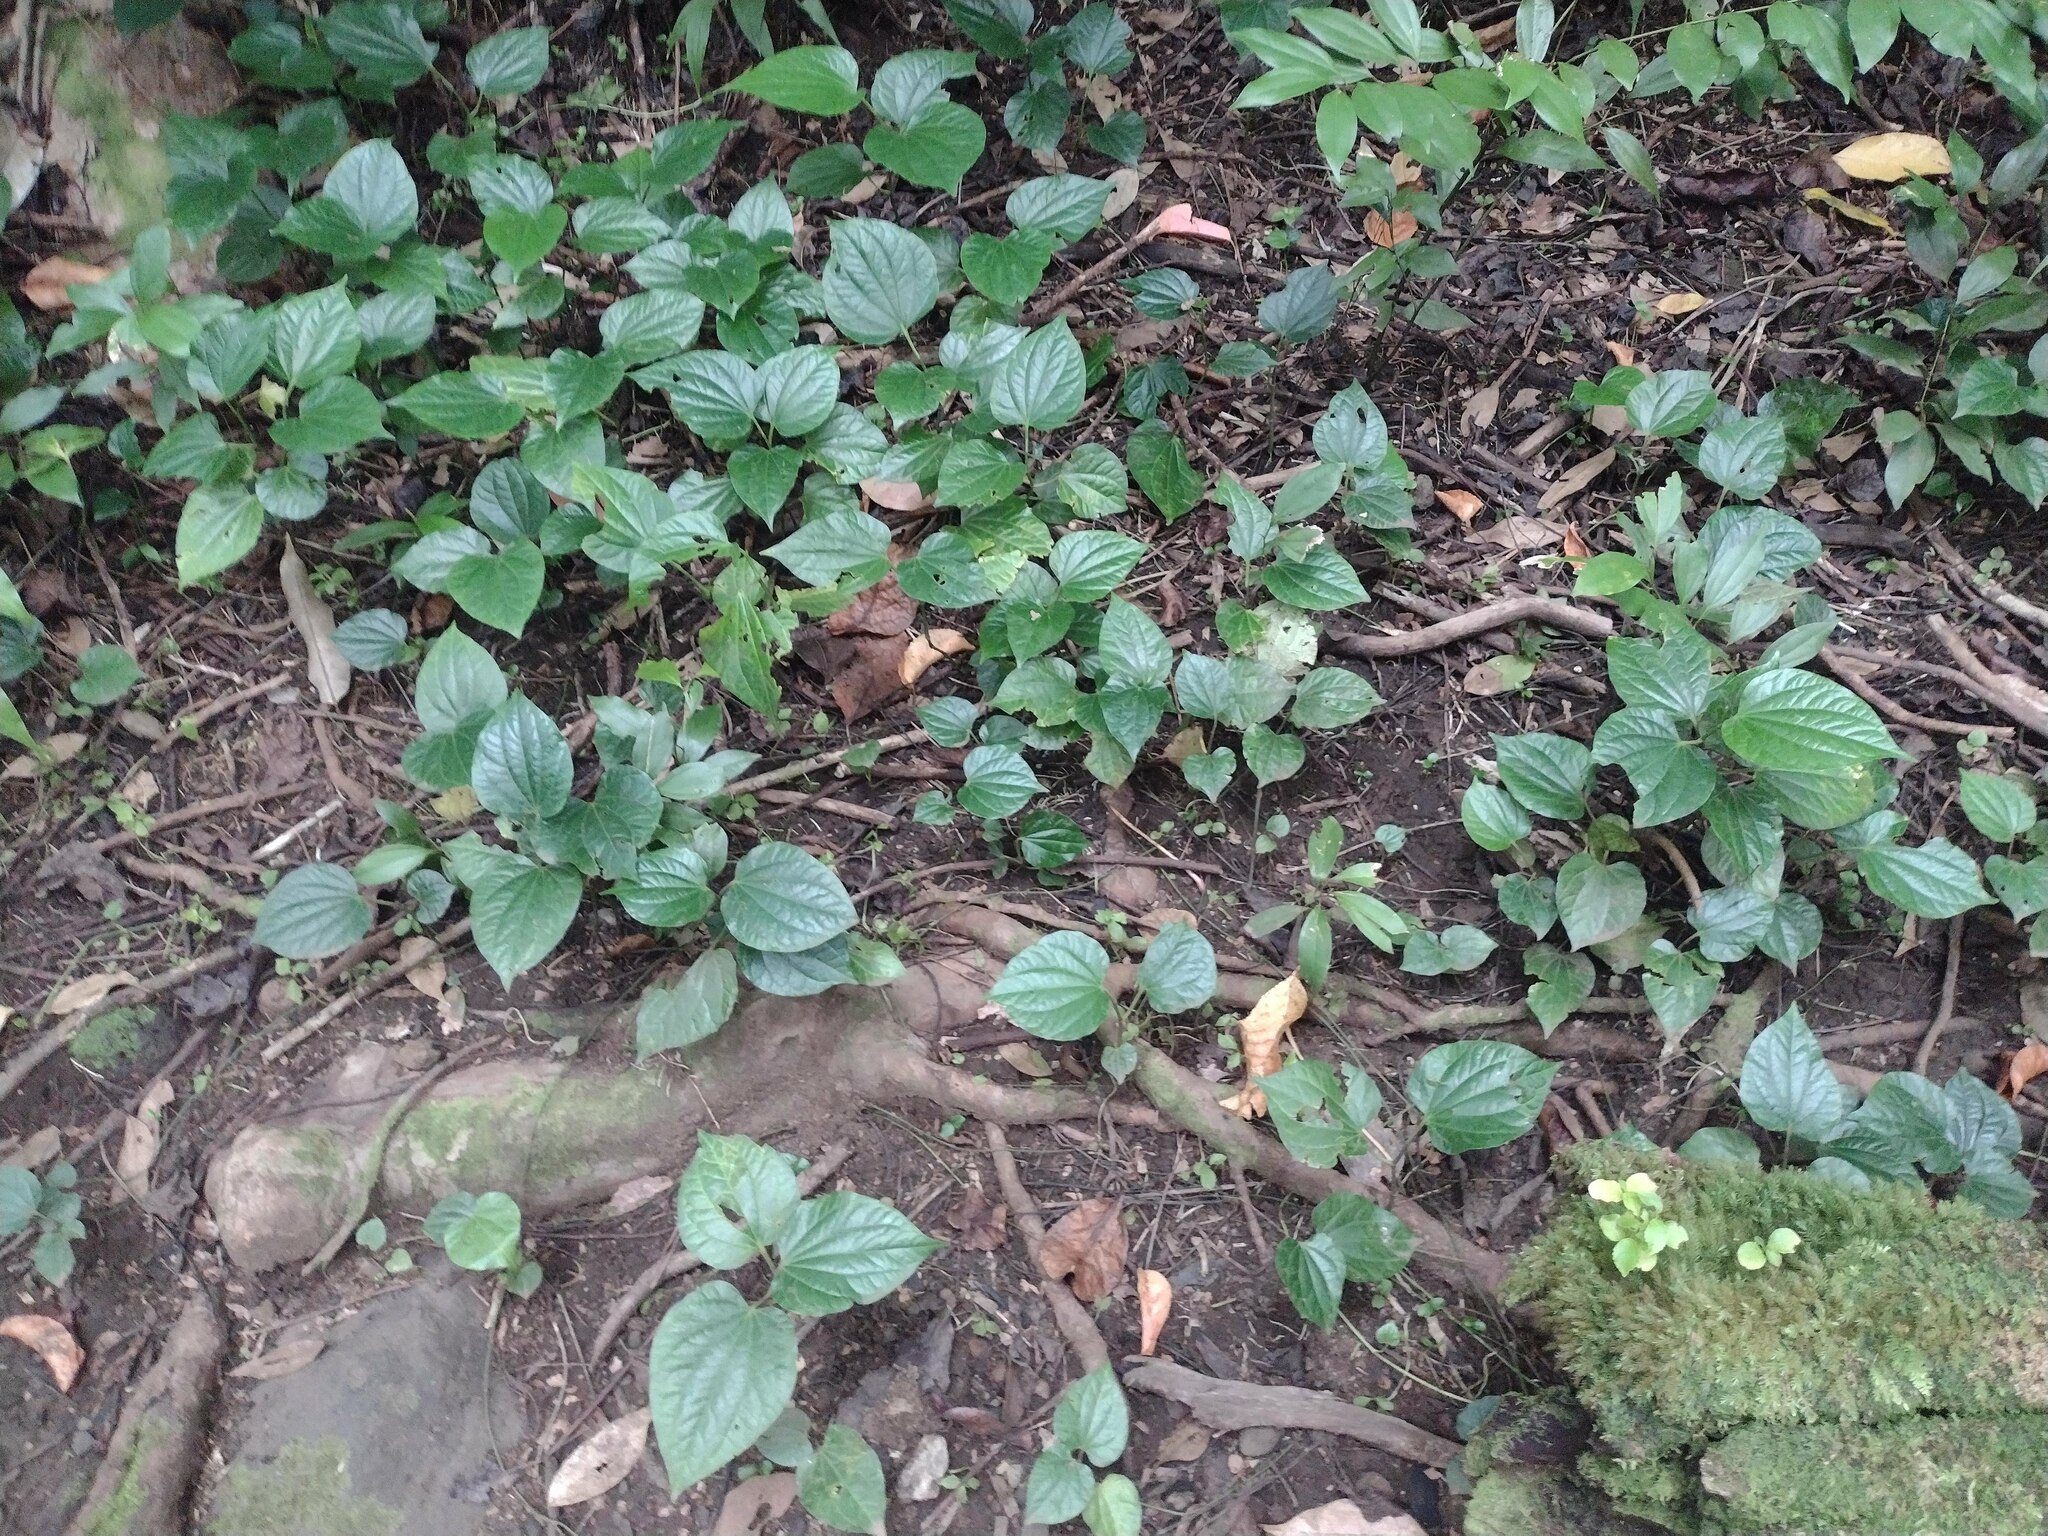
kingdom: Plantae
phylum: Tracheophyta
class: Magnoliopsida
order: Piperales
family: Piperaceae
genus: Piper
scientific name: Piper sarmentosum
